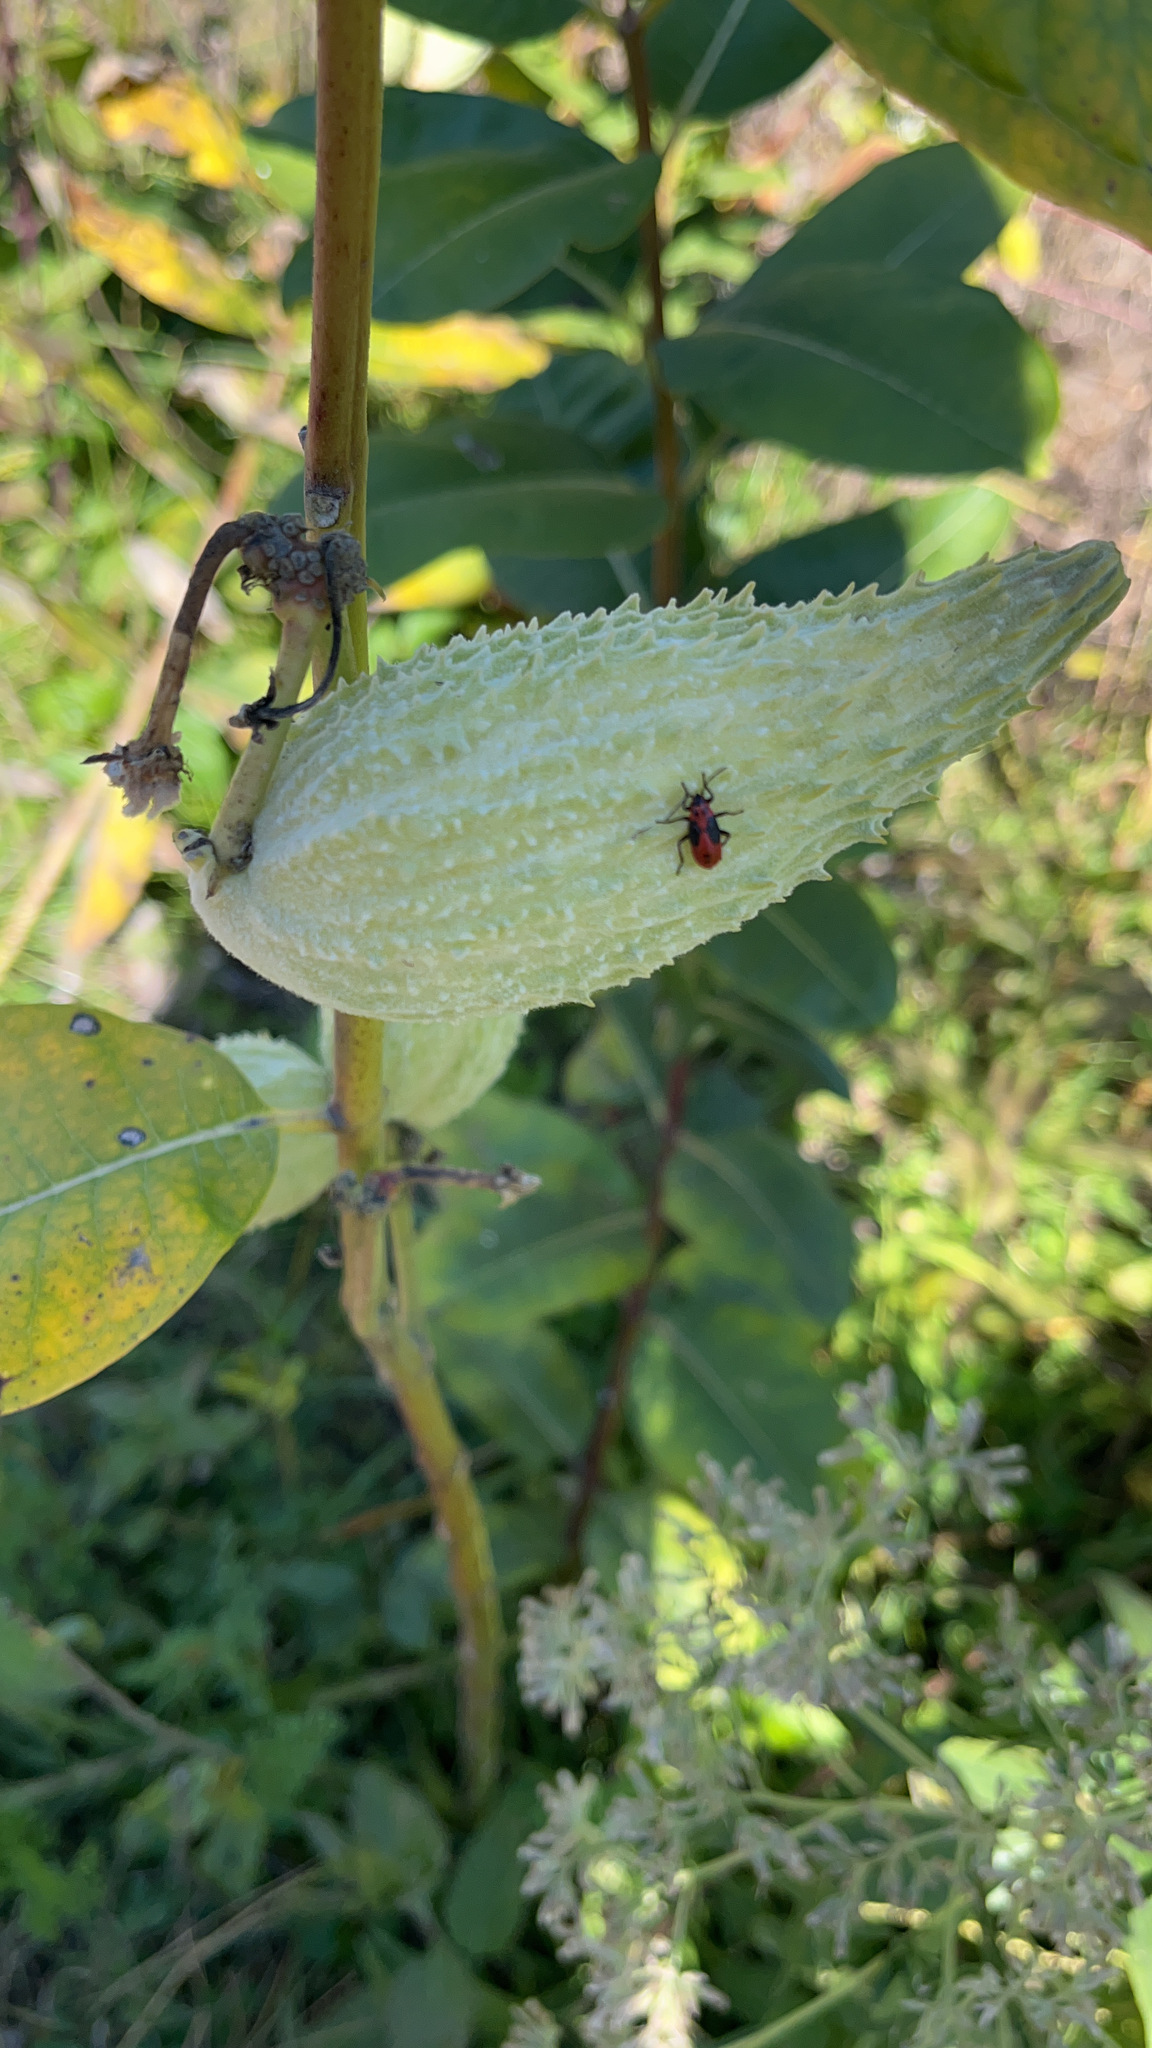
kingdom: Animalia
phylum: Arthropoda
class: Insecta
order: Hemiptera
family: Lygaeidae
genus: Lygaeus
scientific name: Lygaeus kalmii
